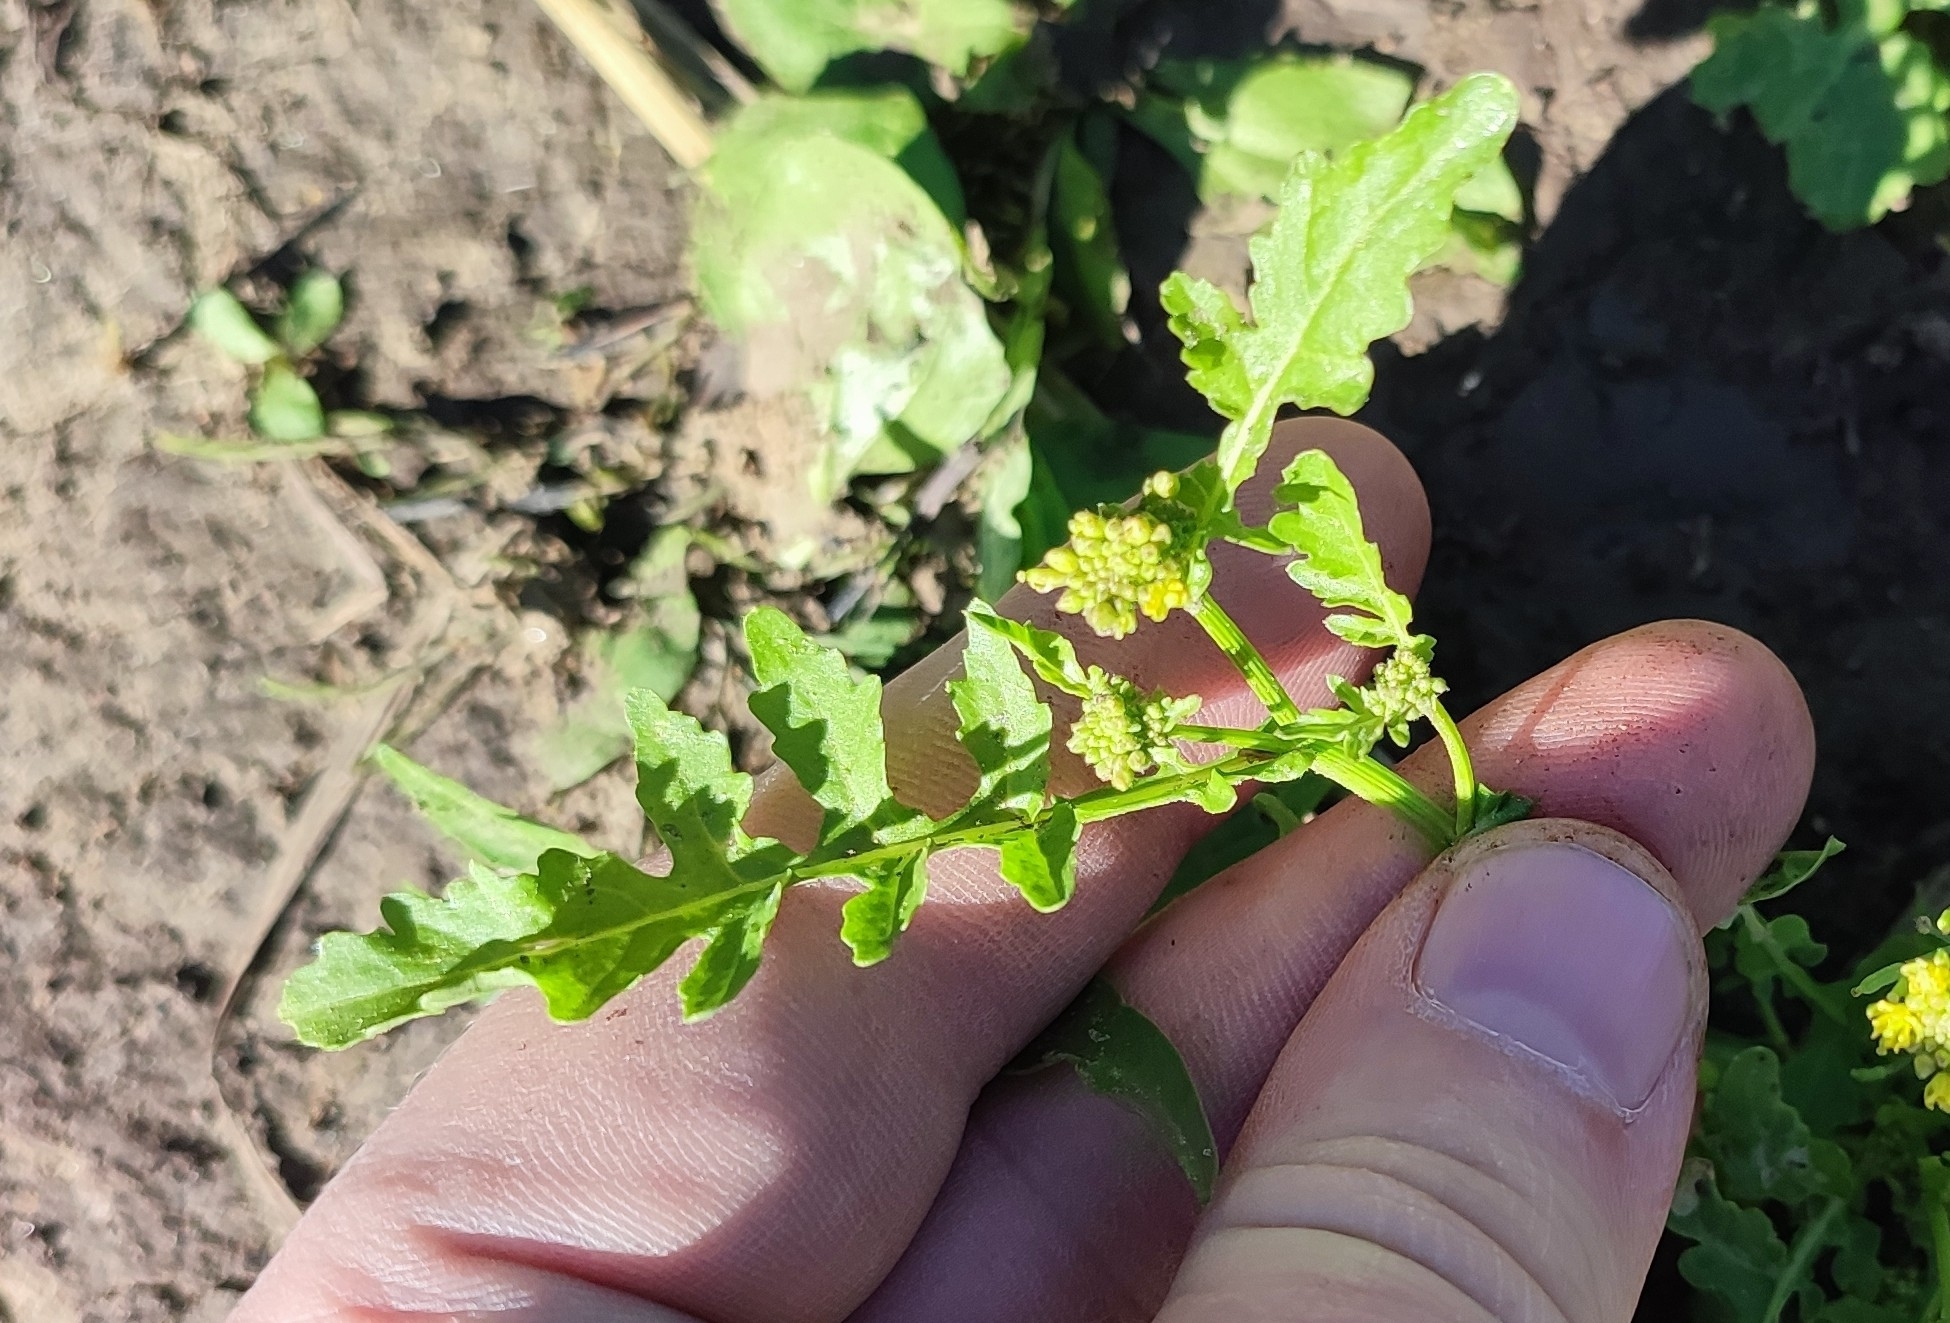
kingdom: Plantae
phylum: Tracheophyta
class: Magnoliopsida
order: Brassicales
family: Brassicaceae
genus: Rorippa
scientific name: Rorippa palustris
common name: Marsh yellow-cress
